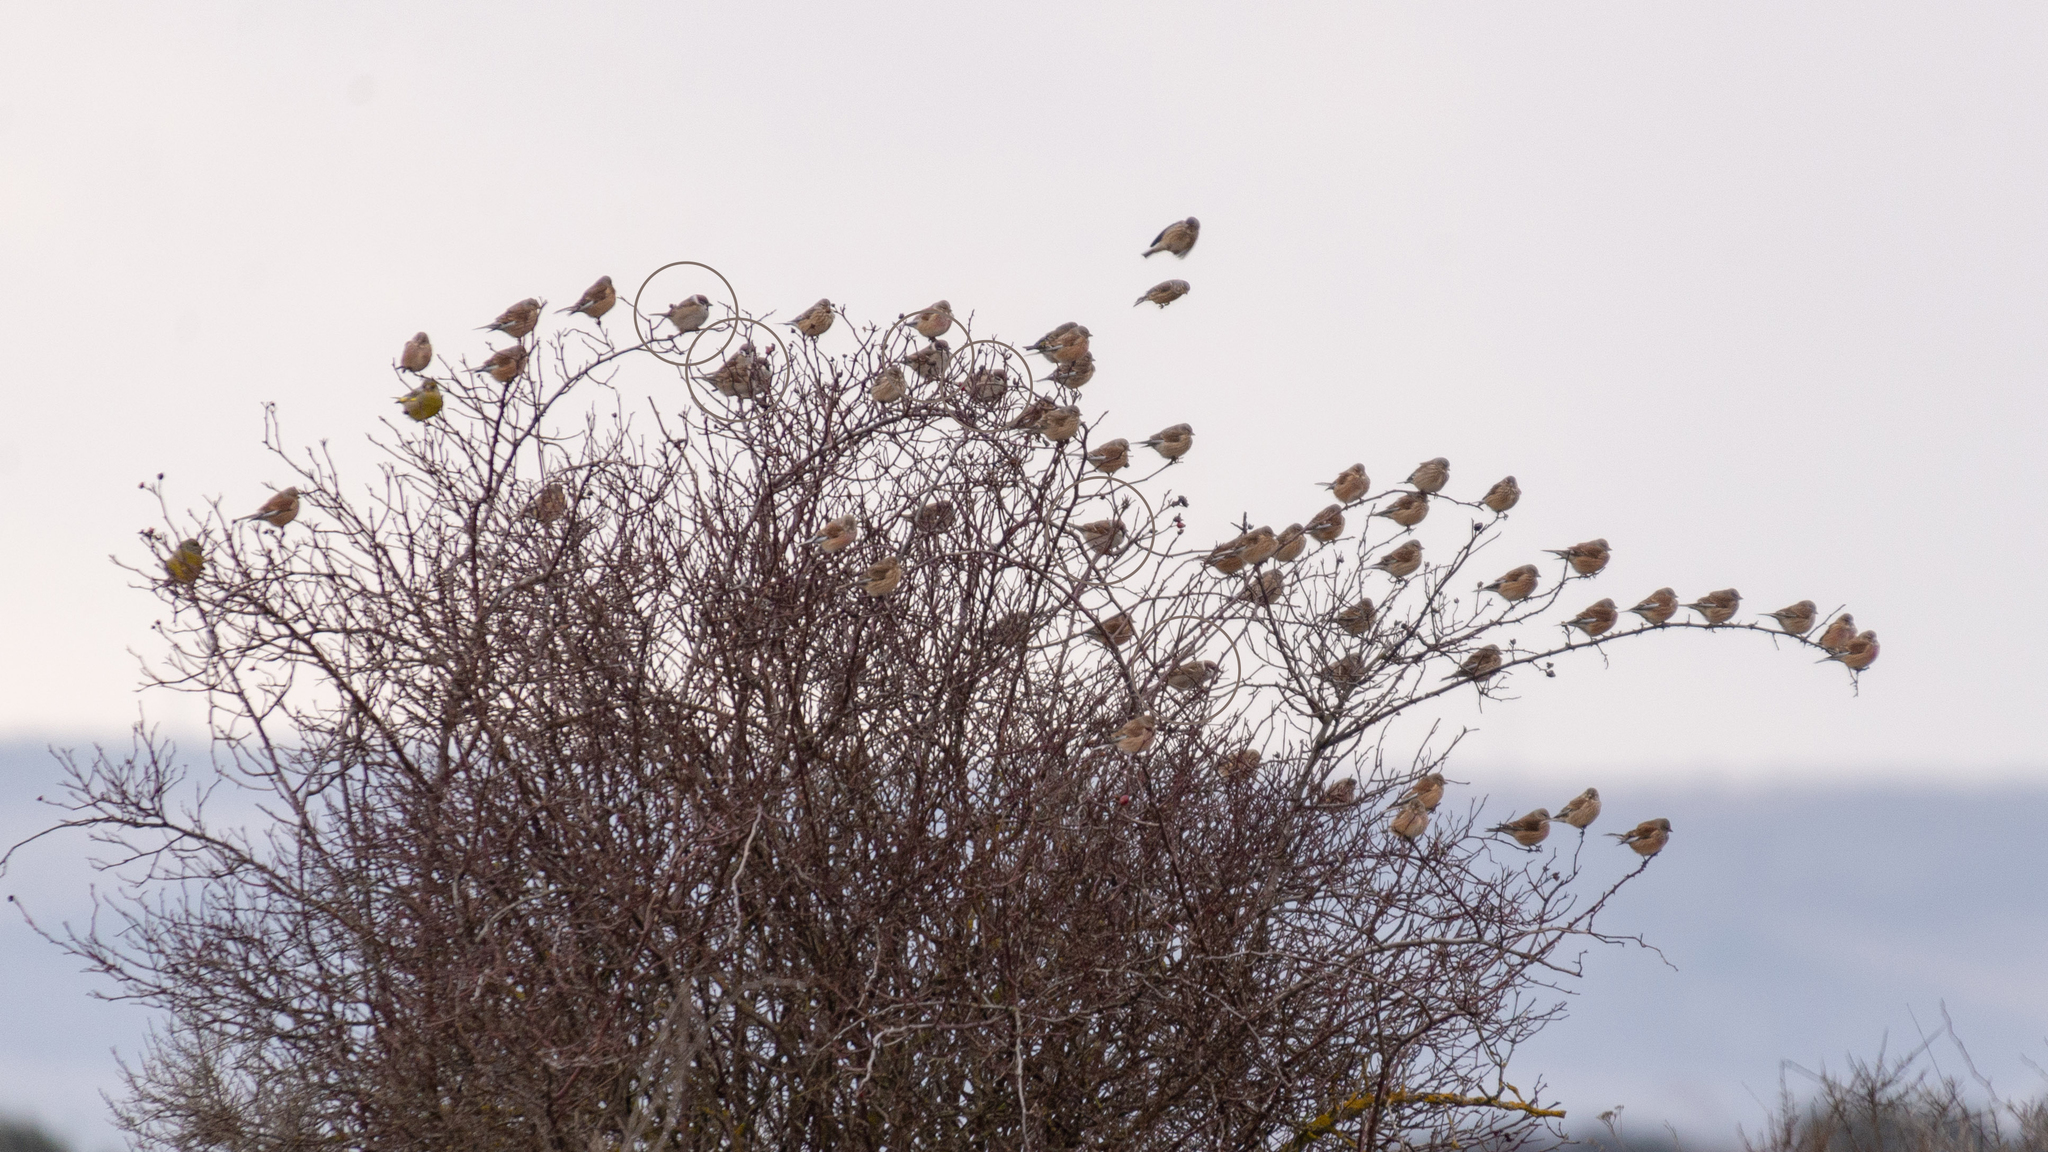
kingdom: Animalia
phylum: Chordata
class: Aves
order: Passeriformes
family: Passeridae
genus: Passer
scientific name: Passer montanus
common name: Eurasian tree sparrow
